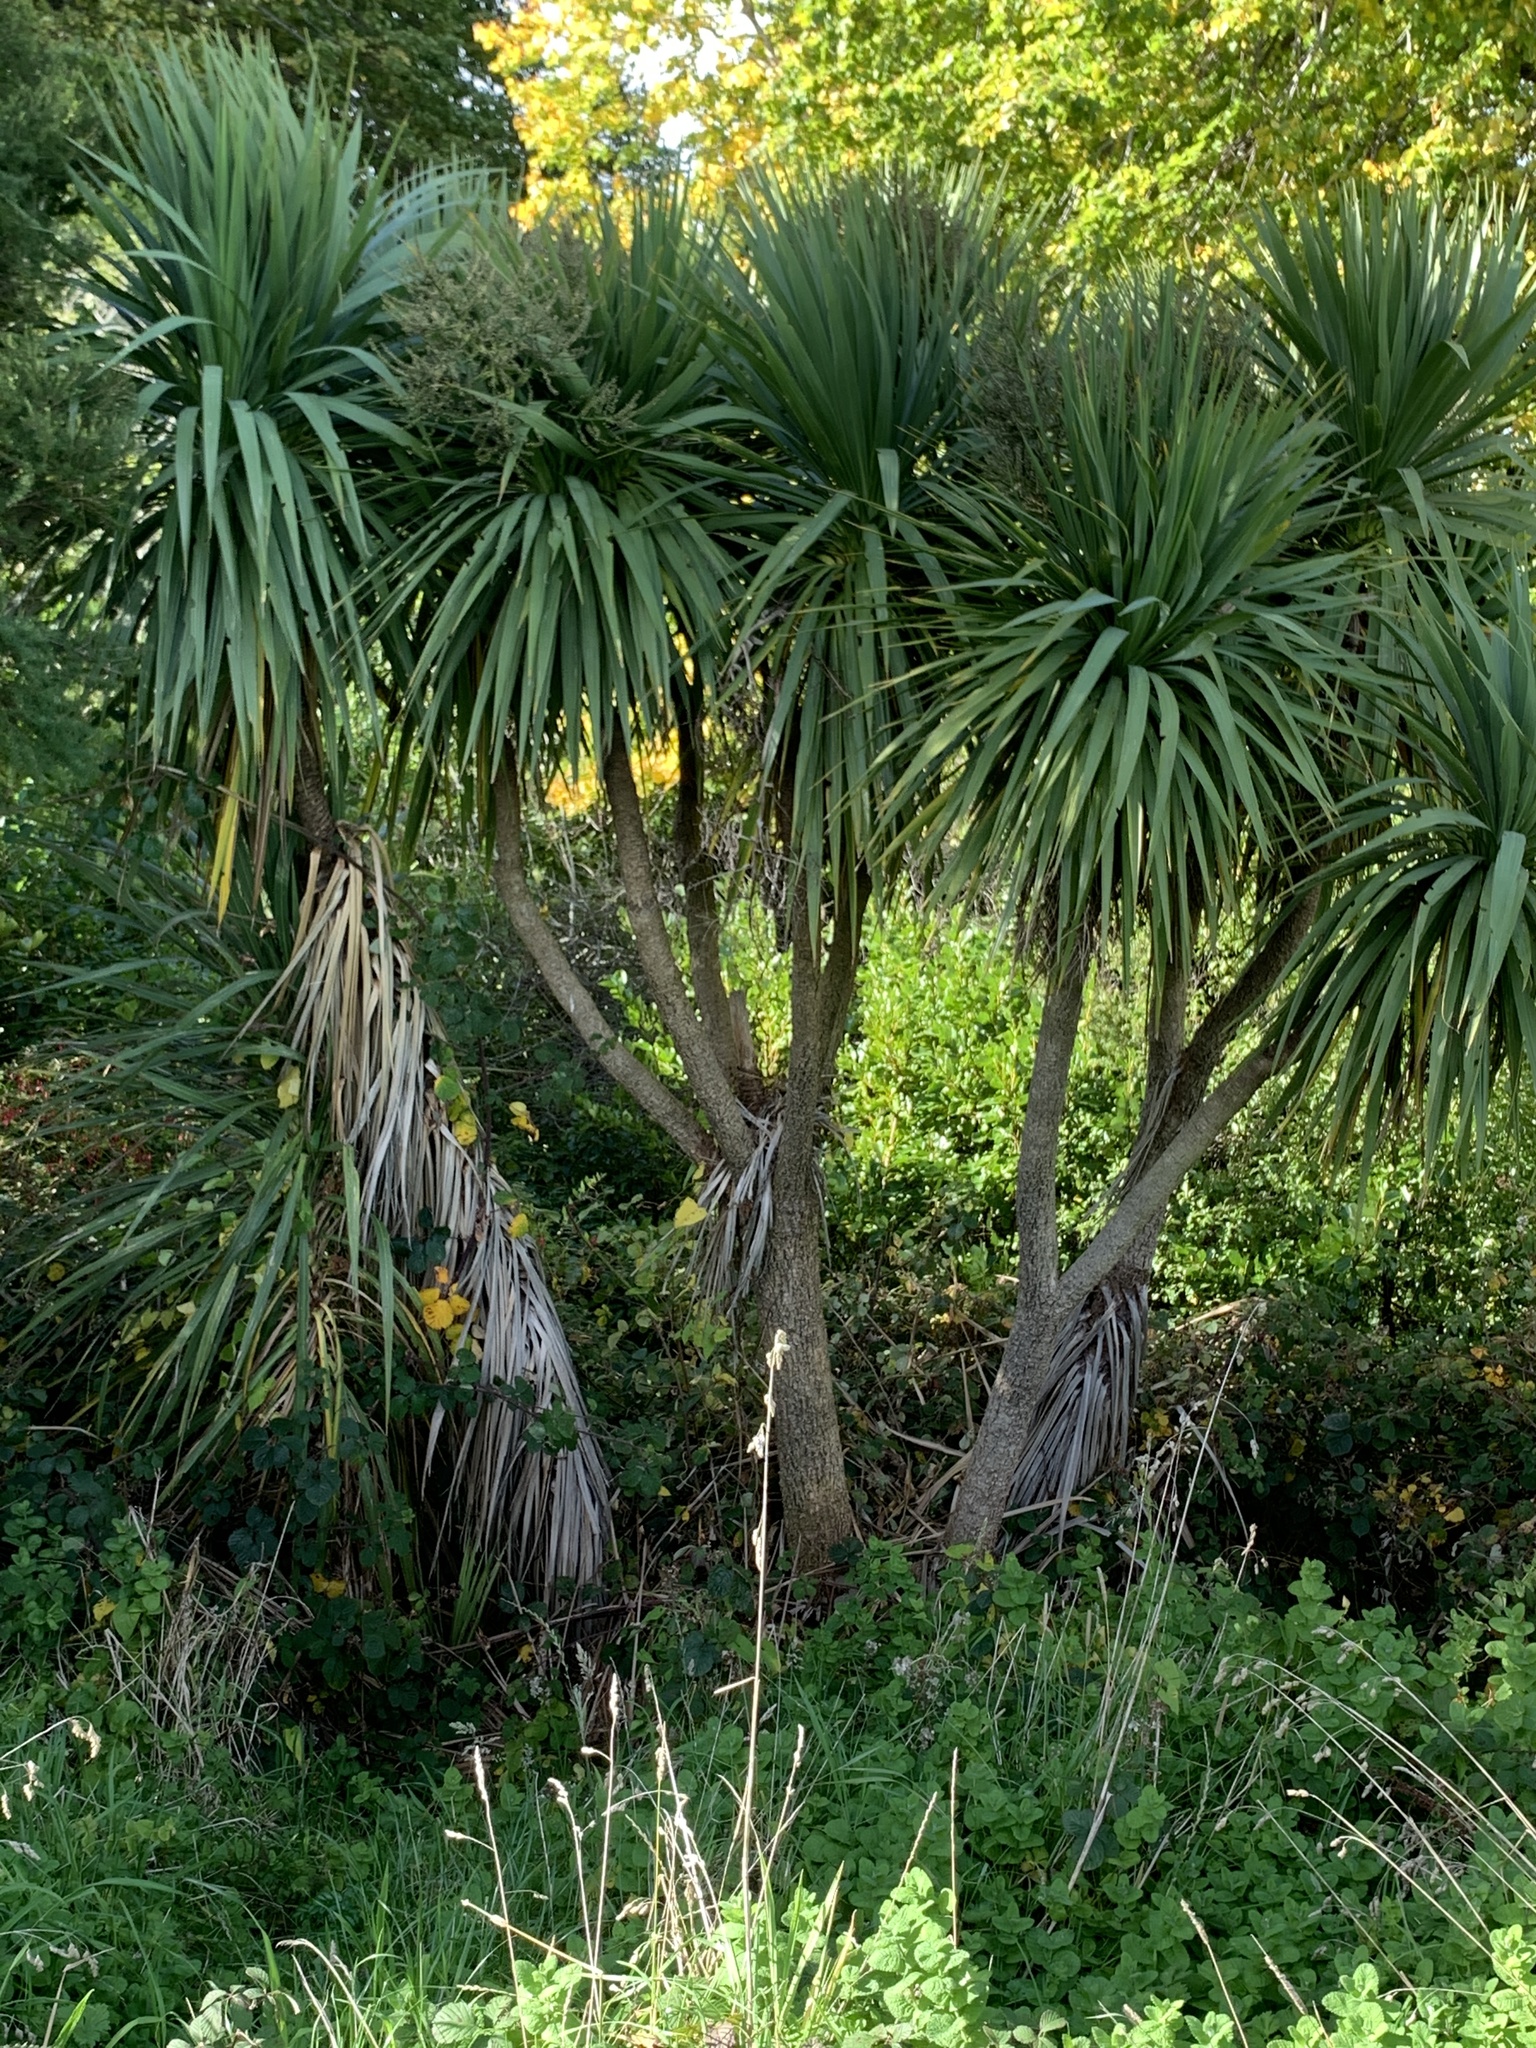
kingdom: Plantae
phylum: Tracheophyta
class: Liliopsida
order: Asparagales
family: Asparagaceae
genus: Cordyline
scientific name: Cordyline australis
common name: Cabbage-palm
